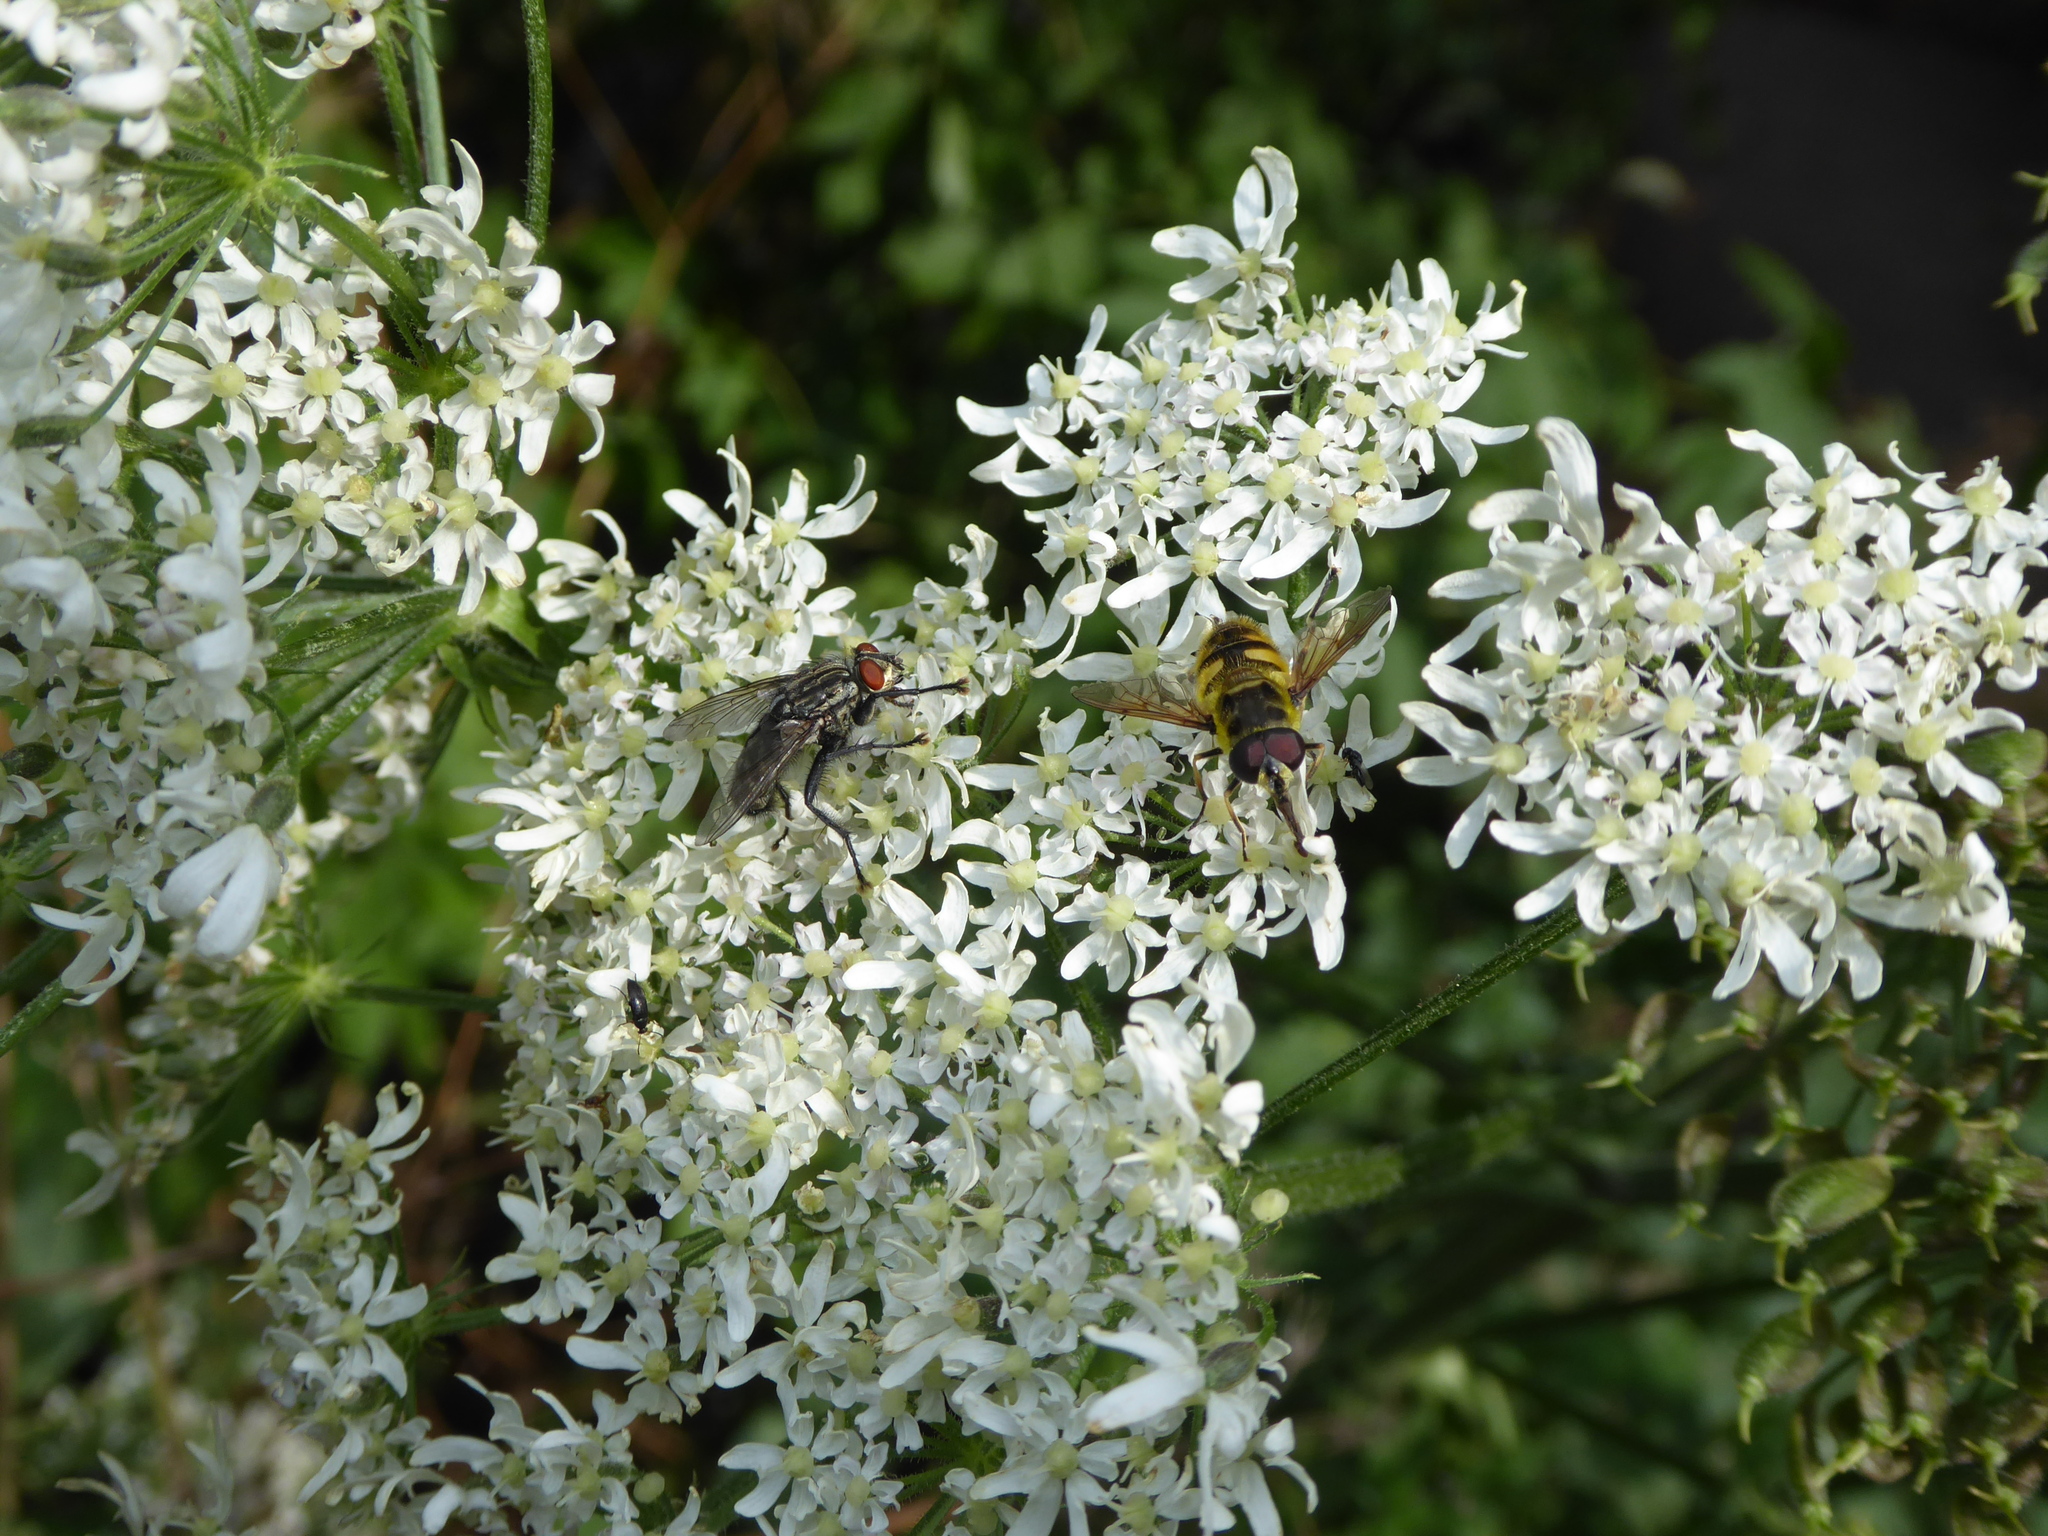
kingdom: Animalia
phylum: Arthropoda
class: Insecta
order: Diptera
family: Syrphidae
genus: Myathropa
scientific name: Myathropa florea
